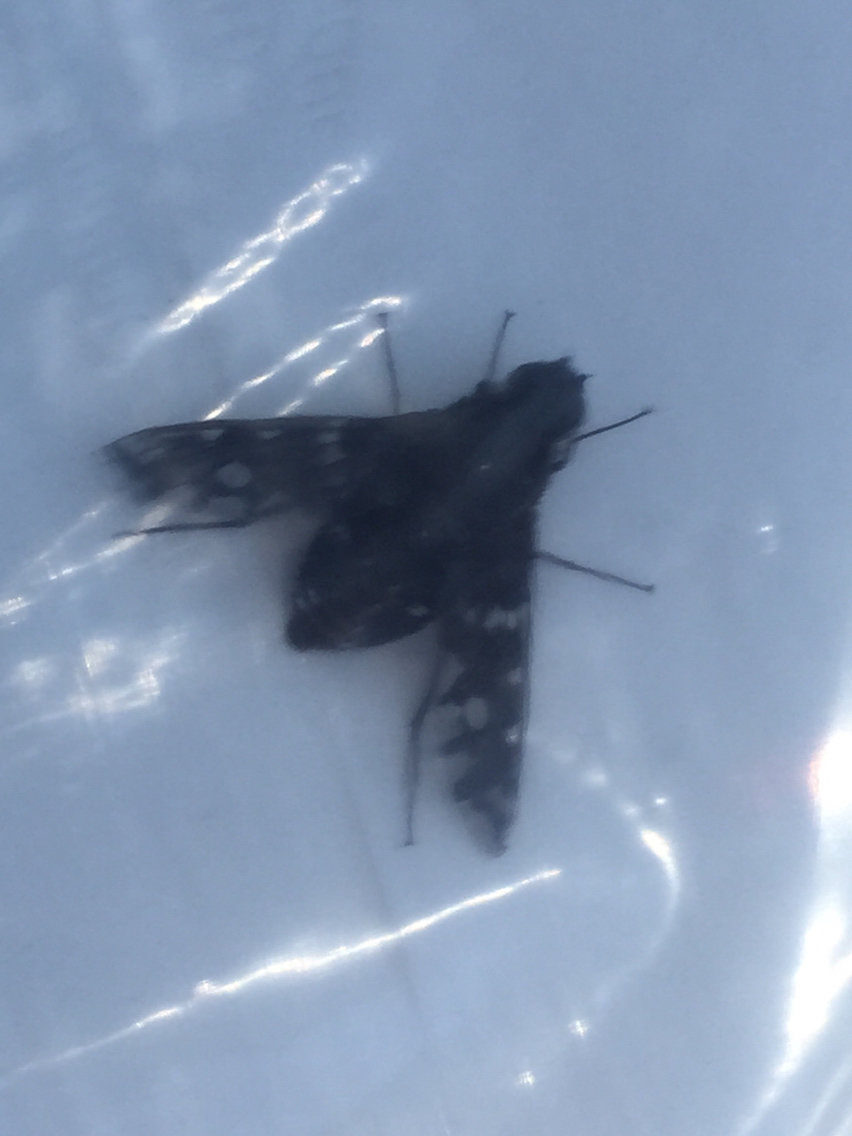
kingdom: Animalia
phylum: Arthropoda
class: Insecta
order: Diptera
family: Bombyliidae
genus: Xenox
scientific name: Xenox tigrinus
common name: Tiger bee fly
